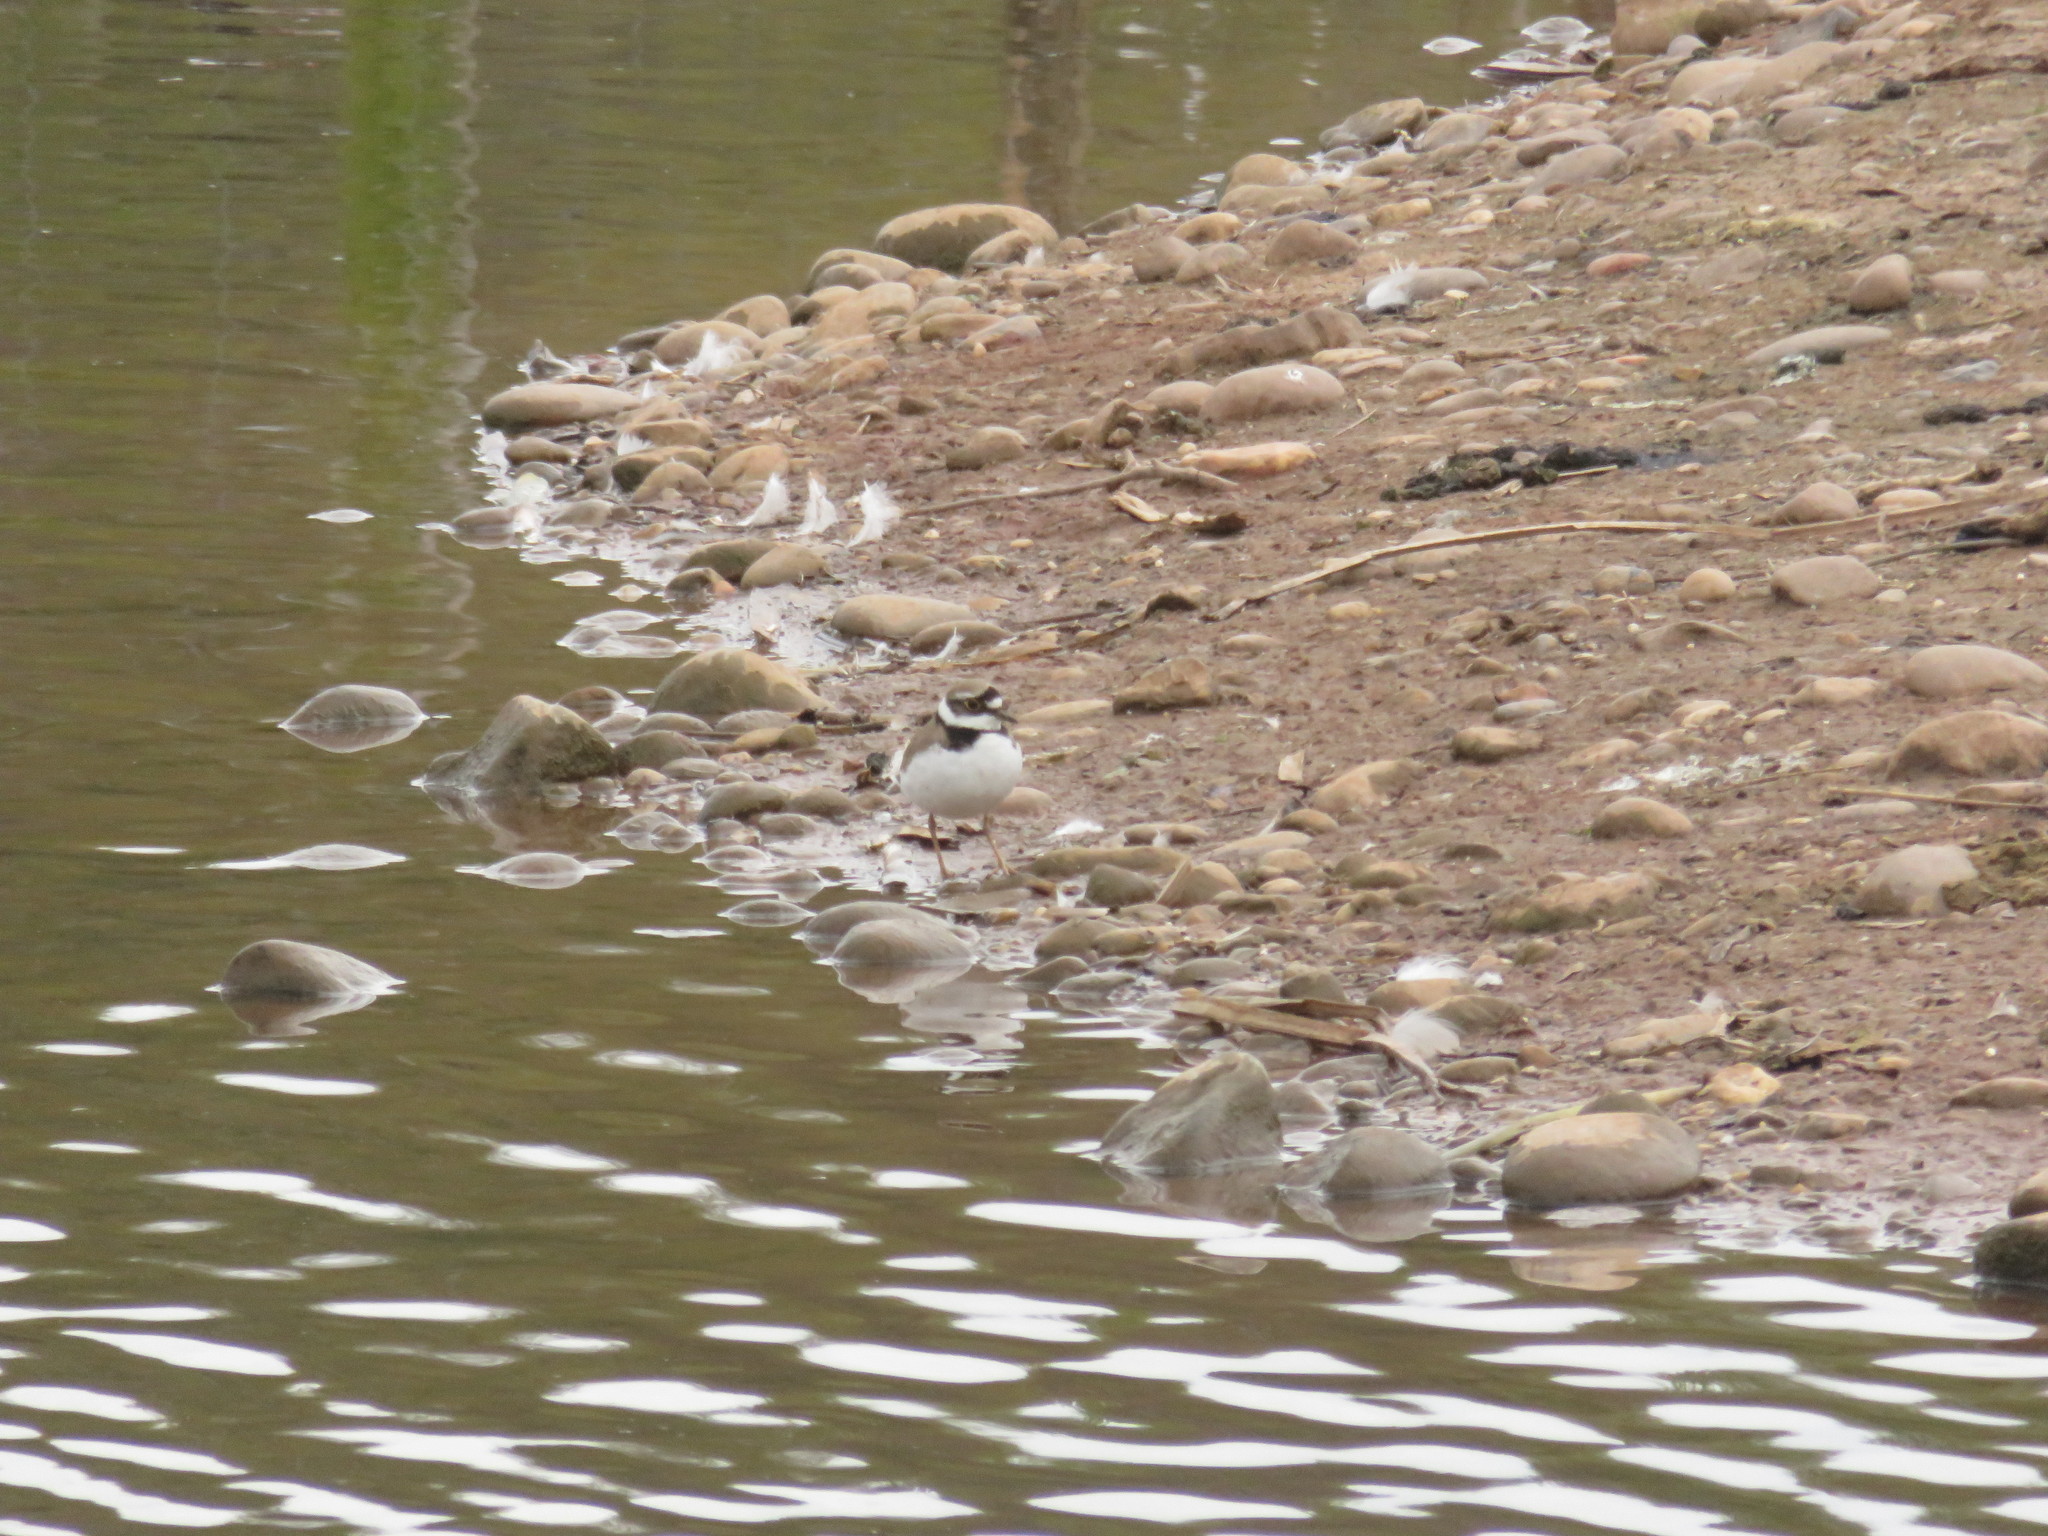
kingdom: Animalia
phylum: Chordata
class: Aves
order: Charadriiformes
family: Charadriidae
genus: Charadrius
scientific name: Charadrius dubius
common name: Little ringed plover
